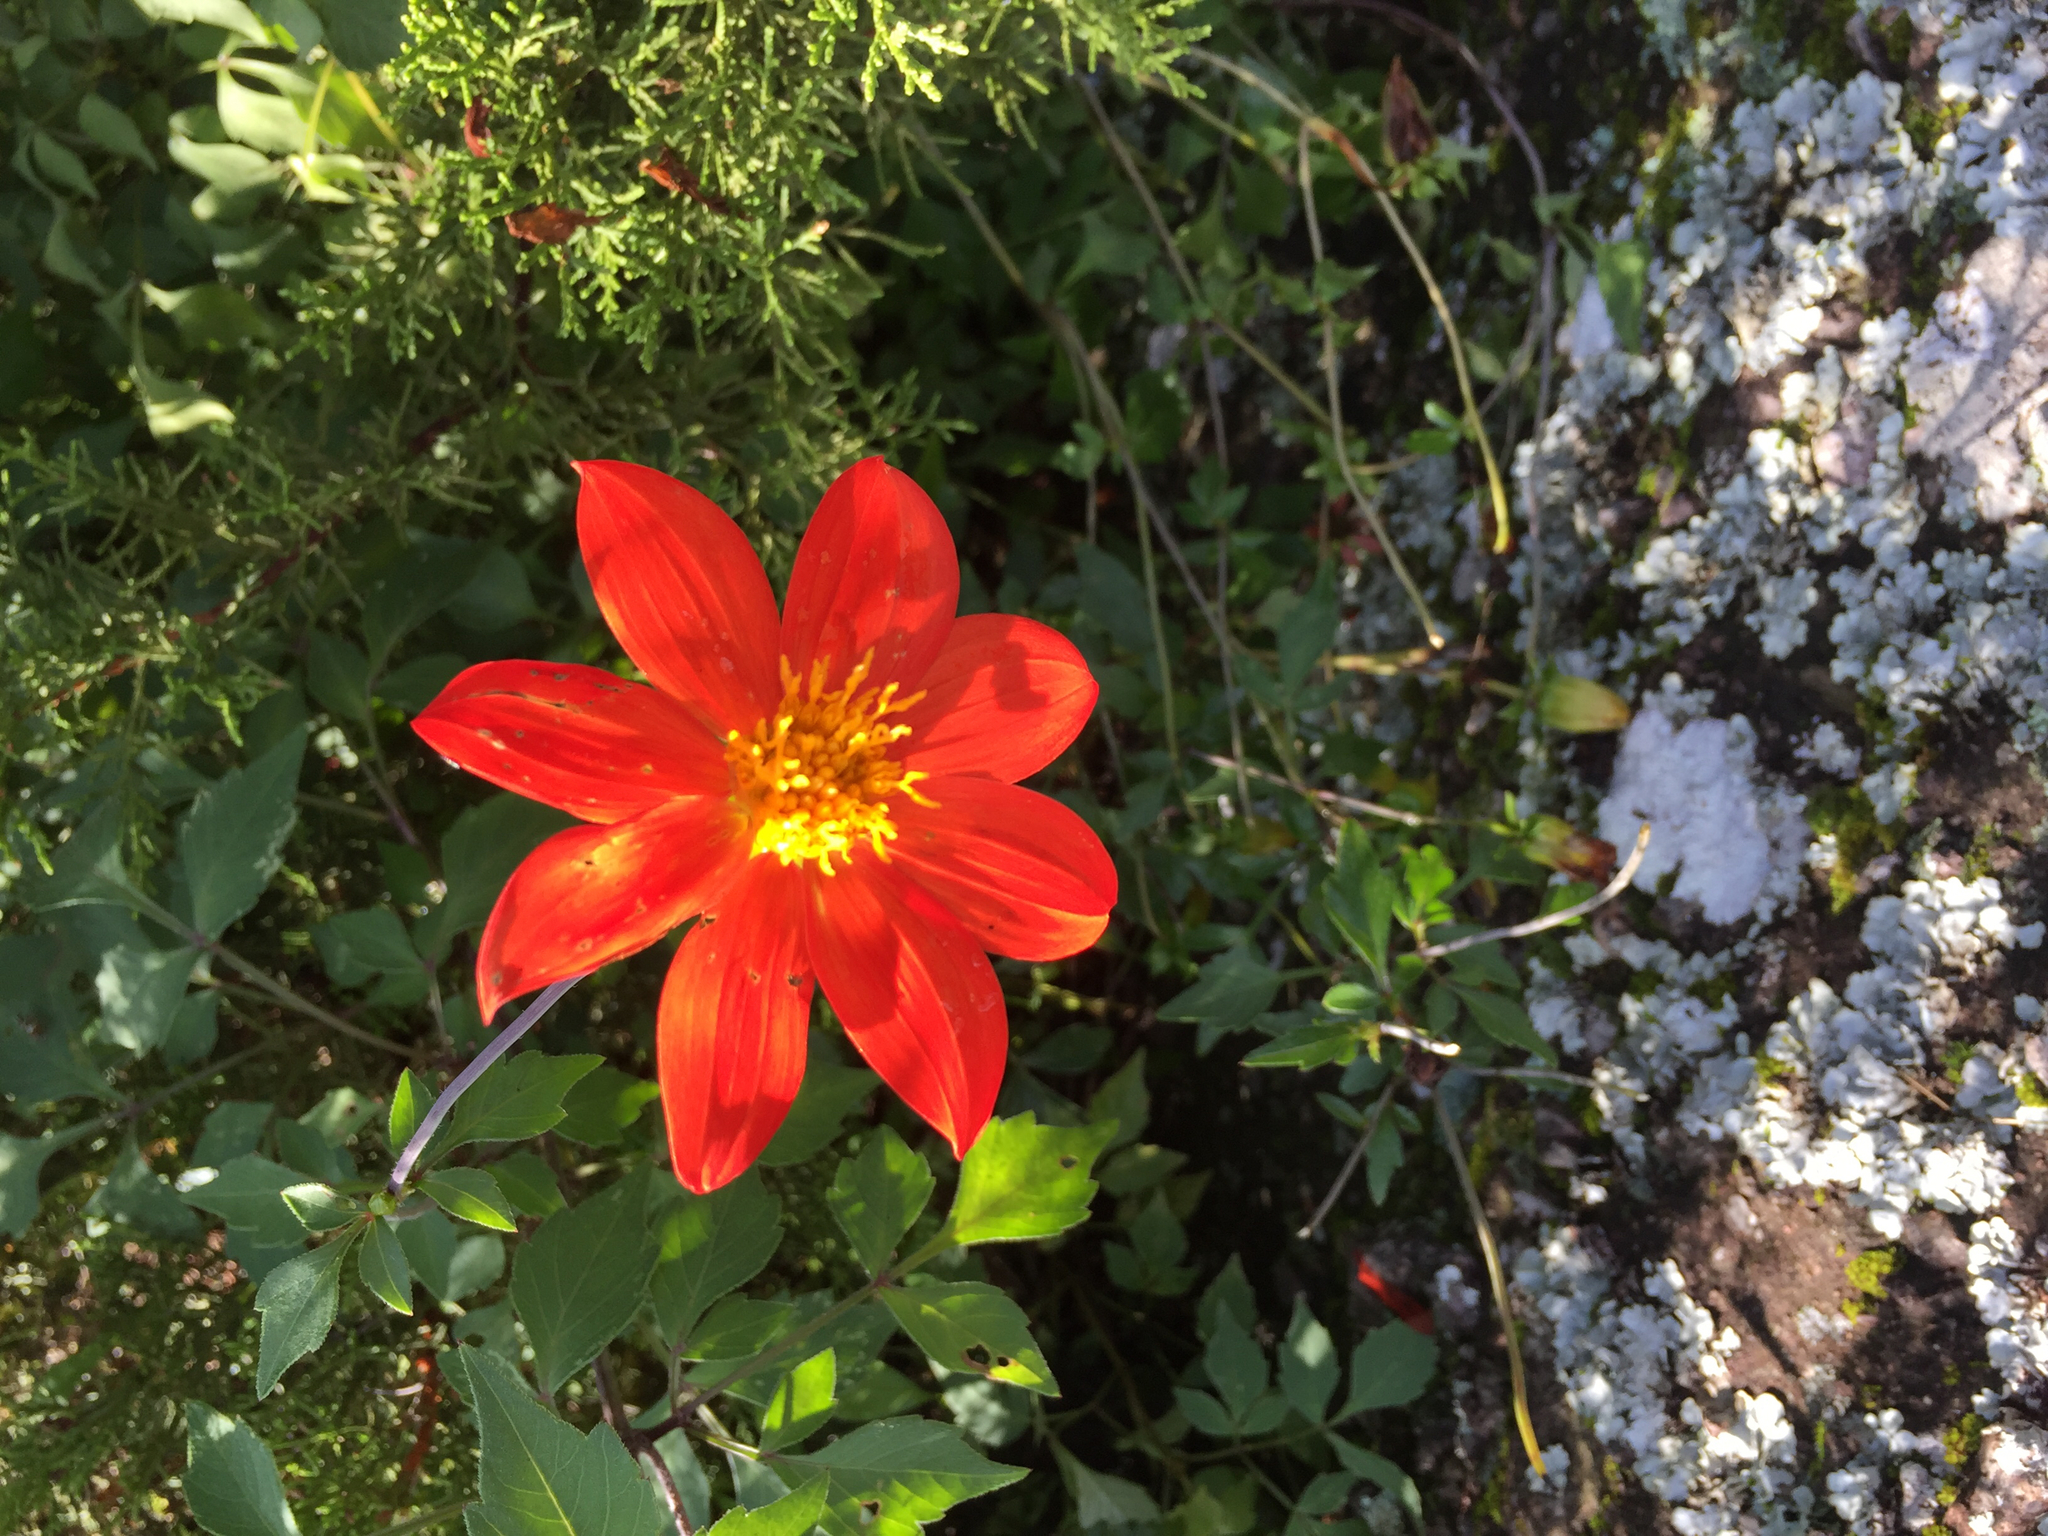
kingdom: Plantae
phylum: Tracheophyta
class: Magnoliopsida
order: Asterales
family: Asteraceae
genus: Dahlia
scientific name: Dahlia coccinea
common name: Red dahlia
